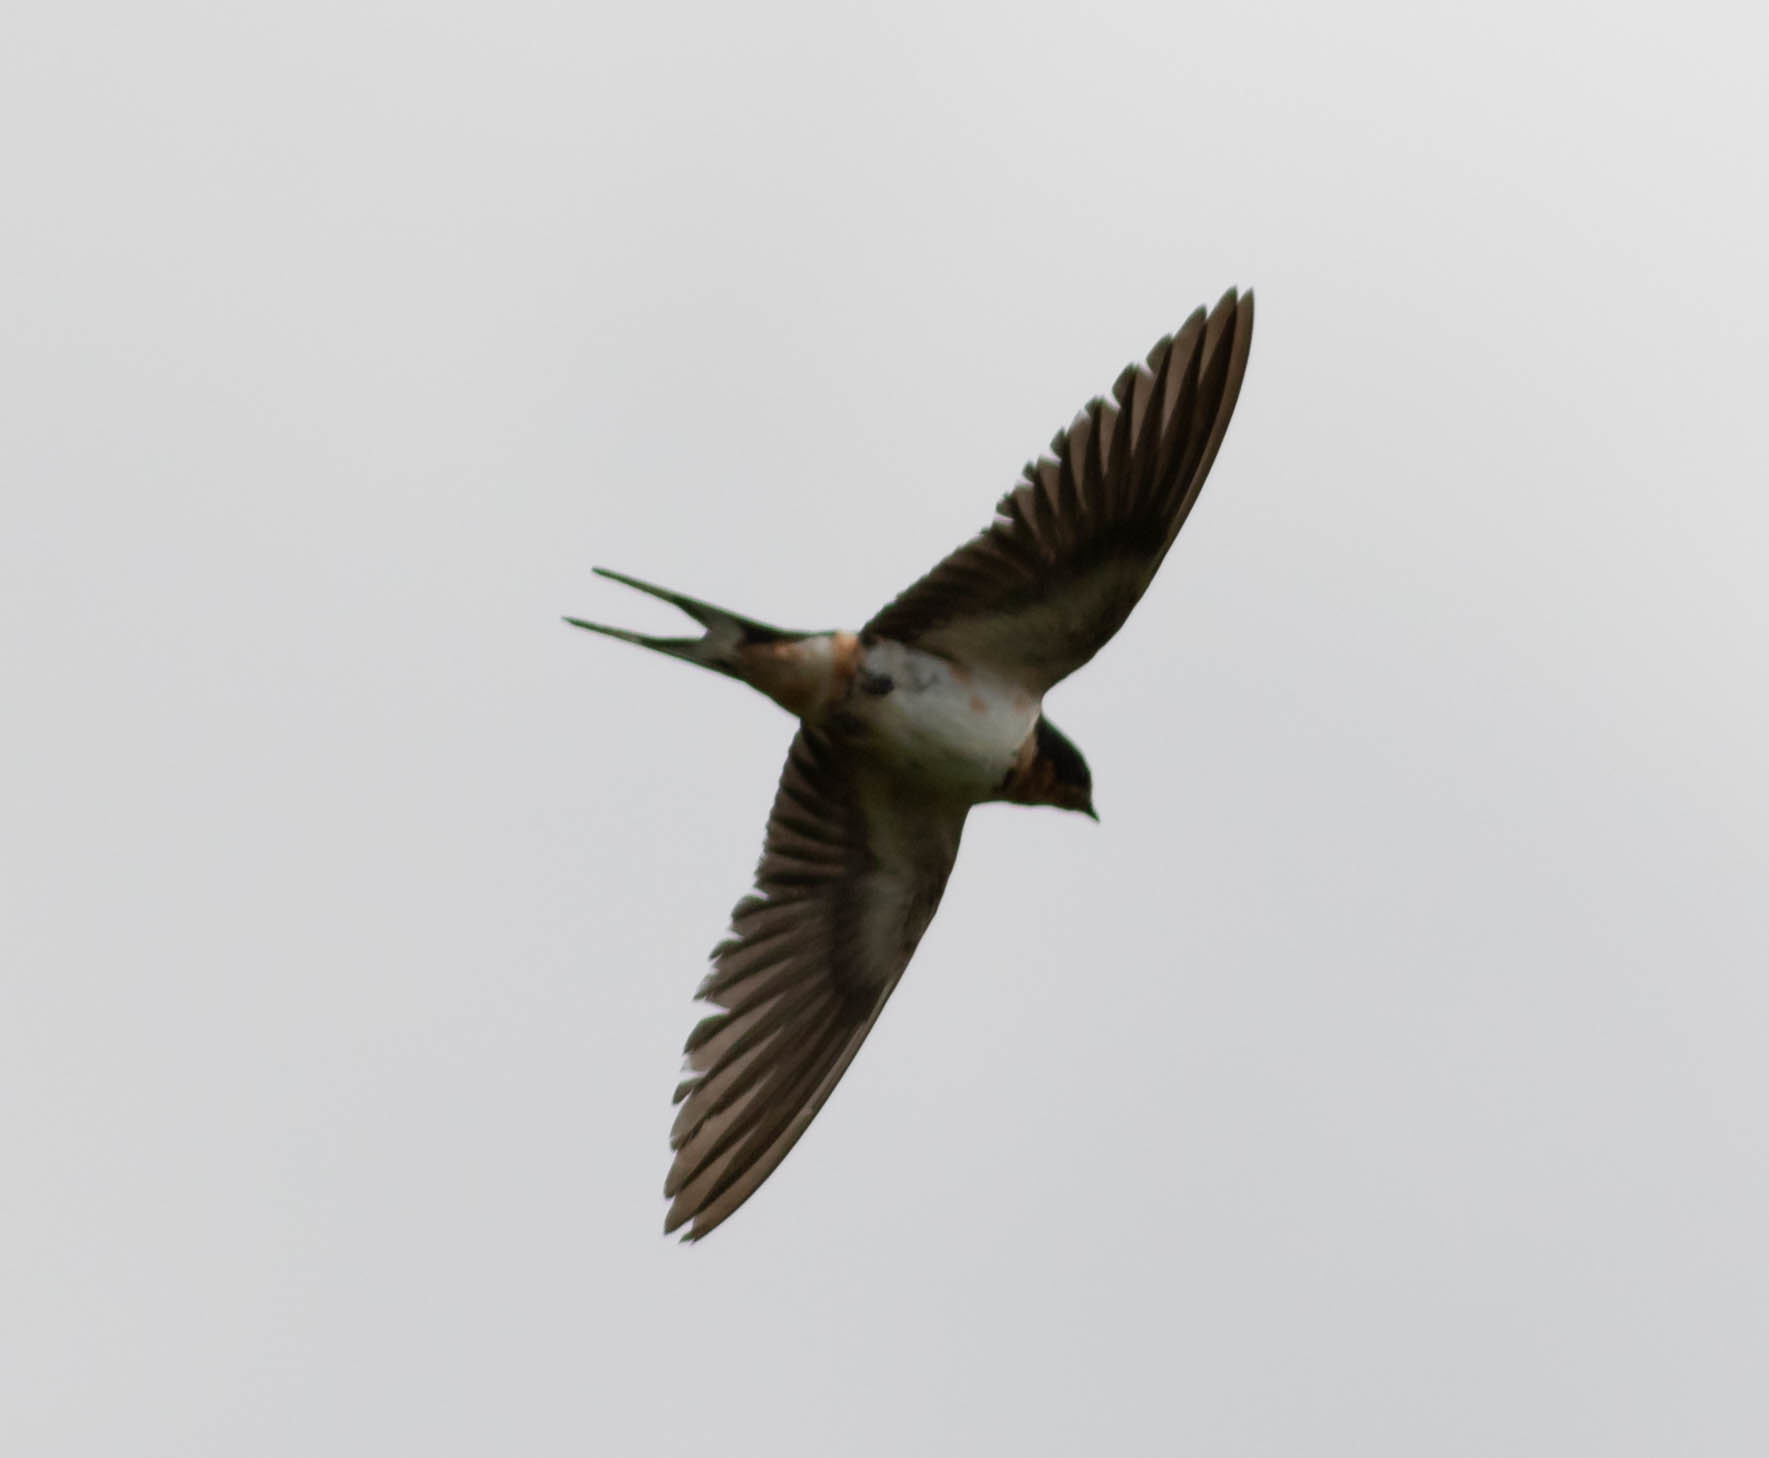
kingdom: Animalia
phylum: Chordata
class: Aves
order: Passeriformes
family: Hirundinidae
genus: Hirundo
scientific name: Hirundo rustica
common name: Barn swallow
